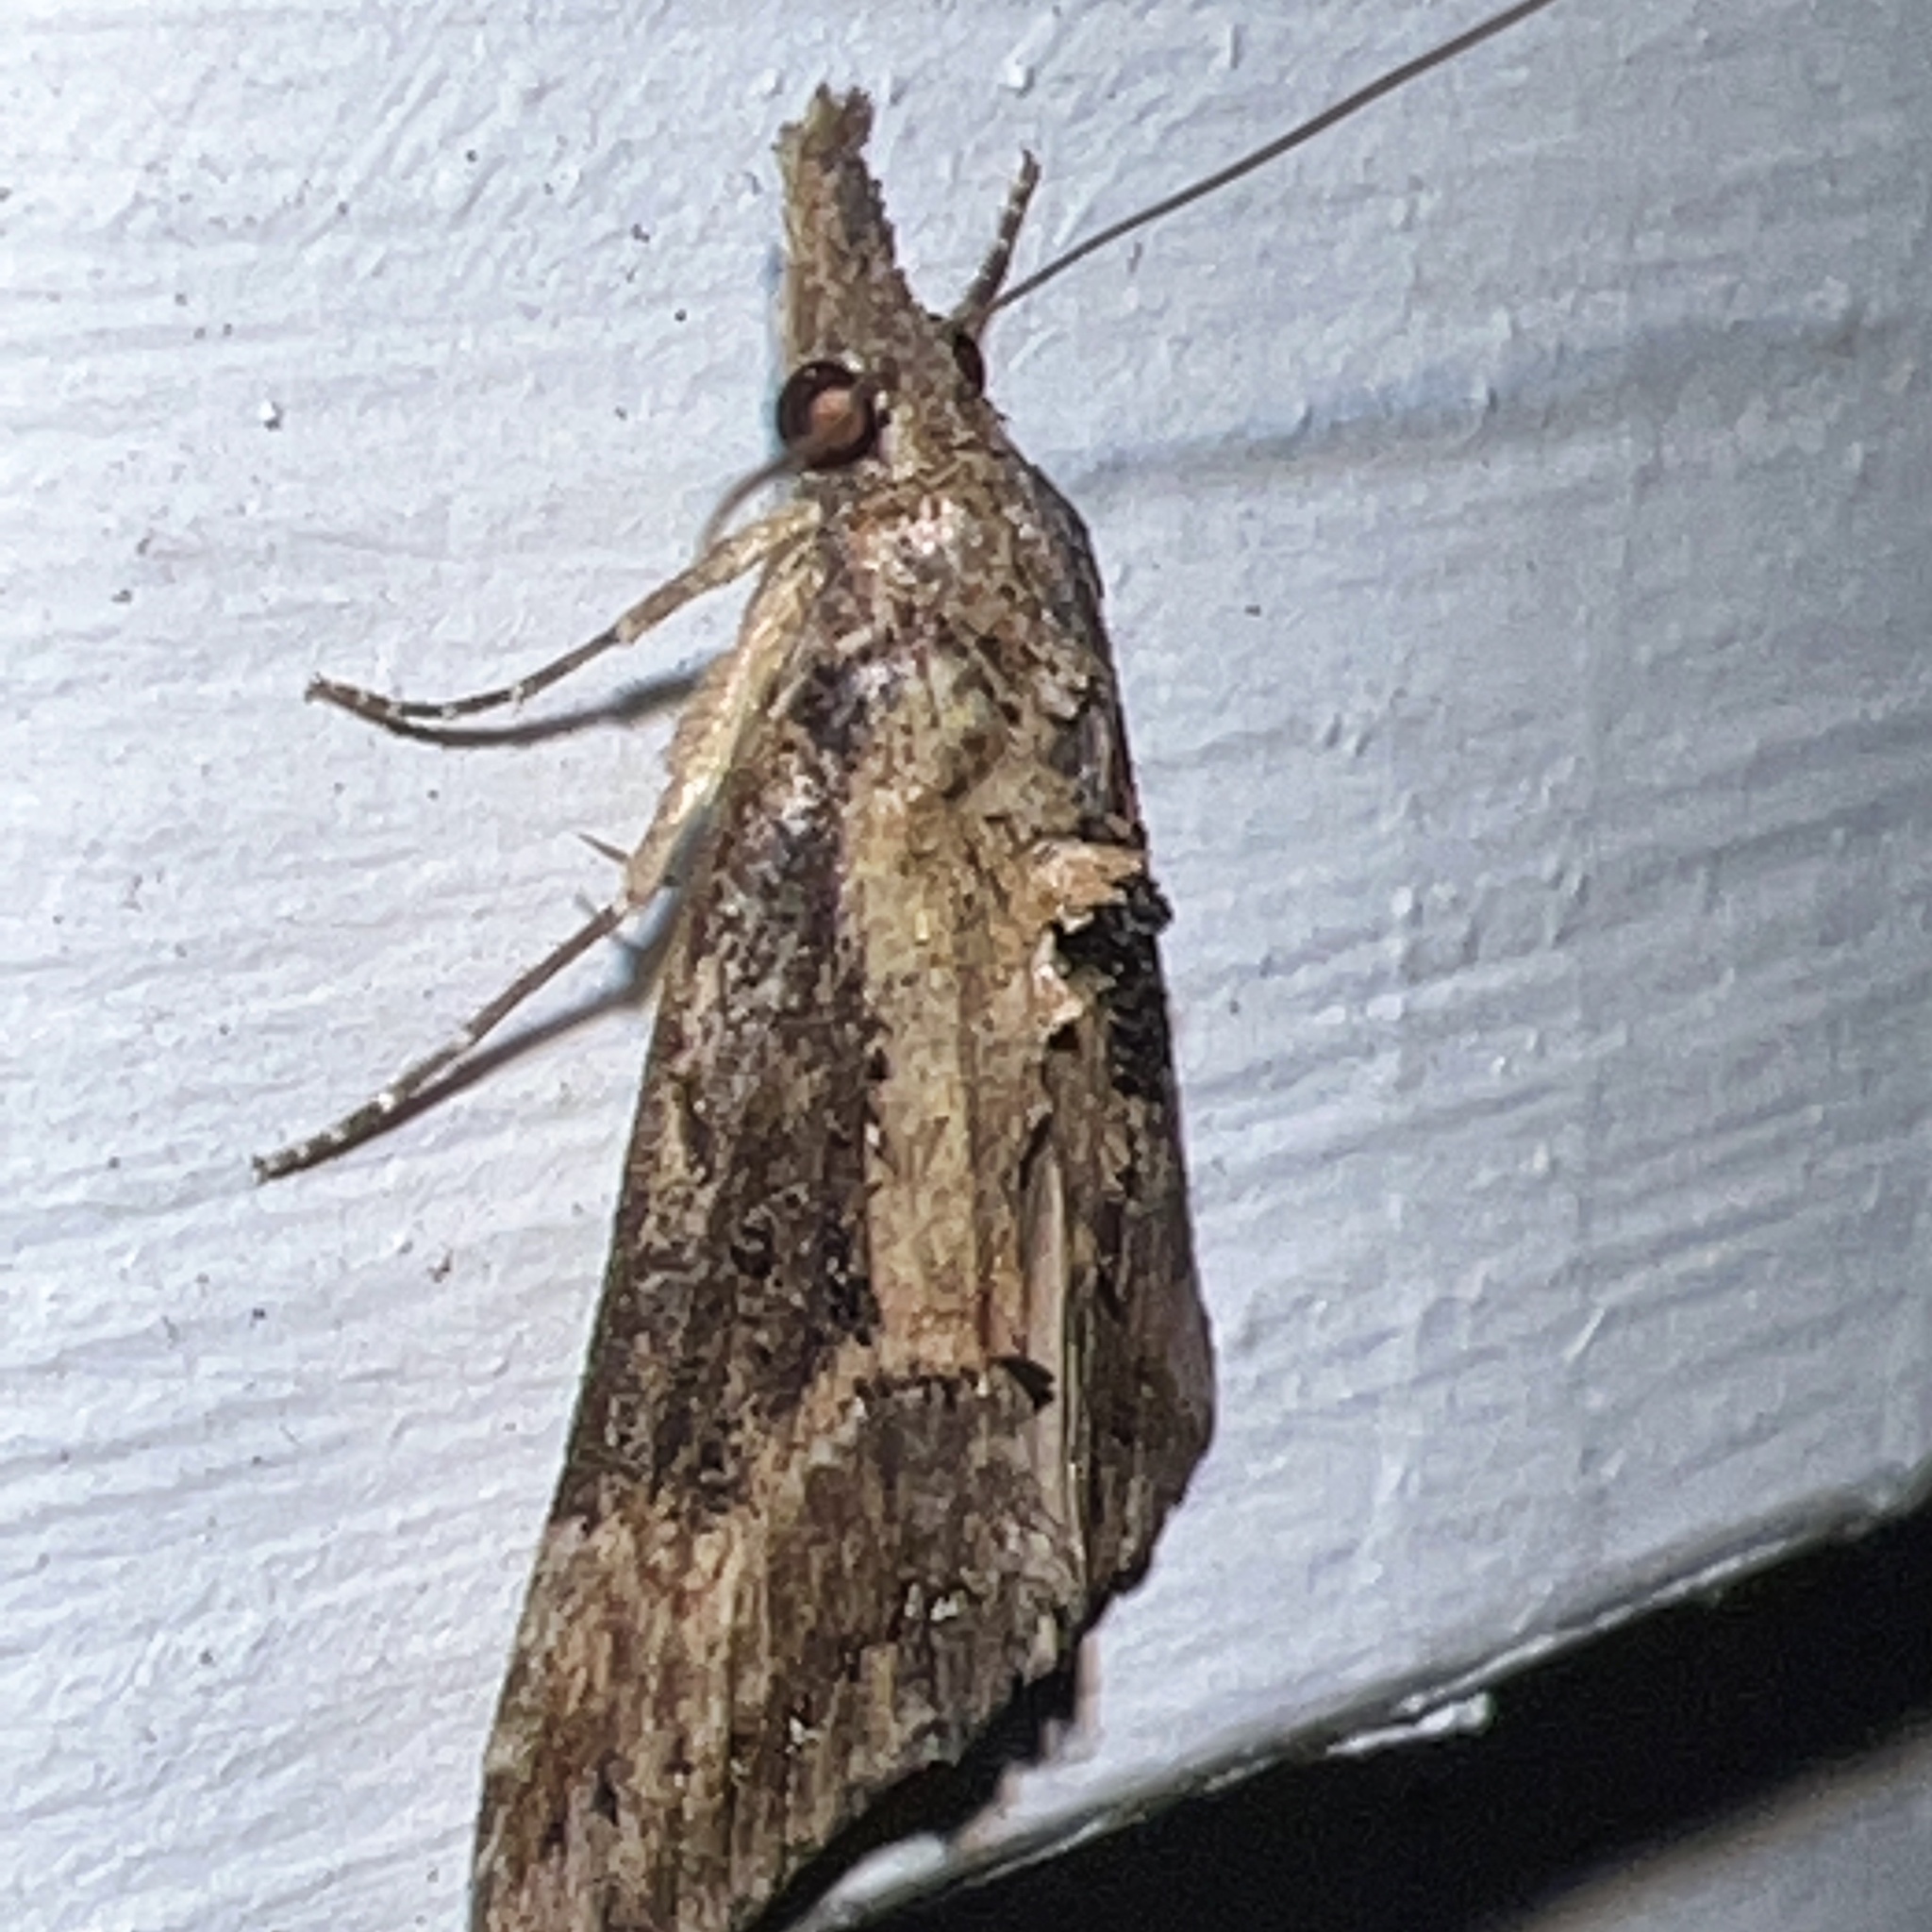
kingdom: Animalia
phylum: Arthropoda
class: Insecta
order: Lepidoptera
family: Erebidae
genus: Hypena
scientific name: Hypena scabra
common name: Green cloverworm
